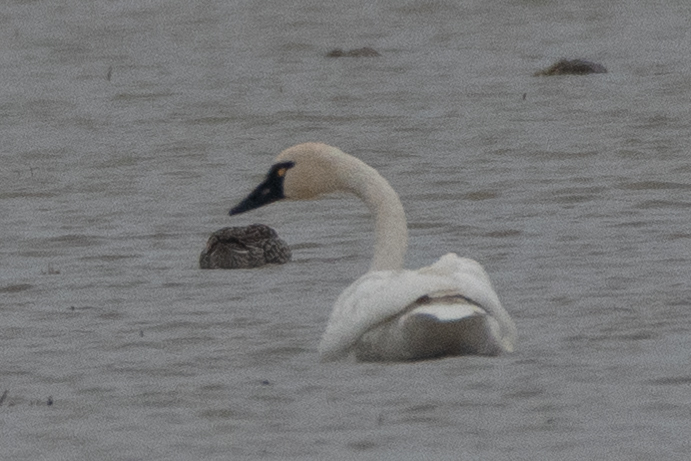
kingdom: Animalia
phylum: Chordata
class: Aves
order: Anseriformes
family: Anatidae
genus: Cygnus
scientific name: Cygnus columbianus
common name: Tundra swan
